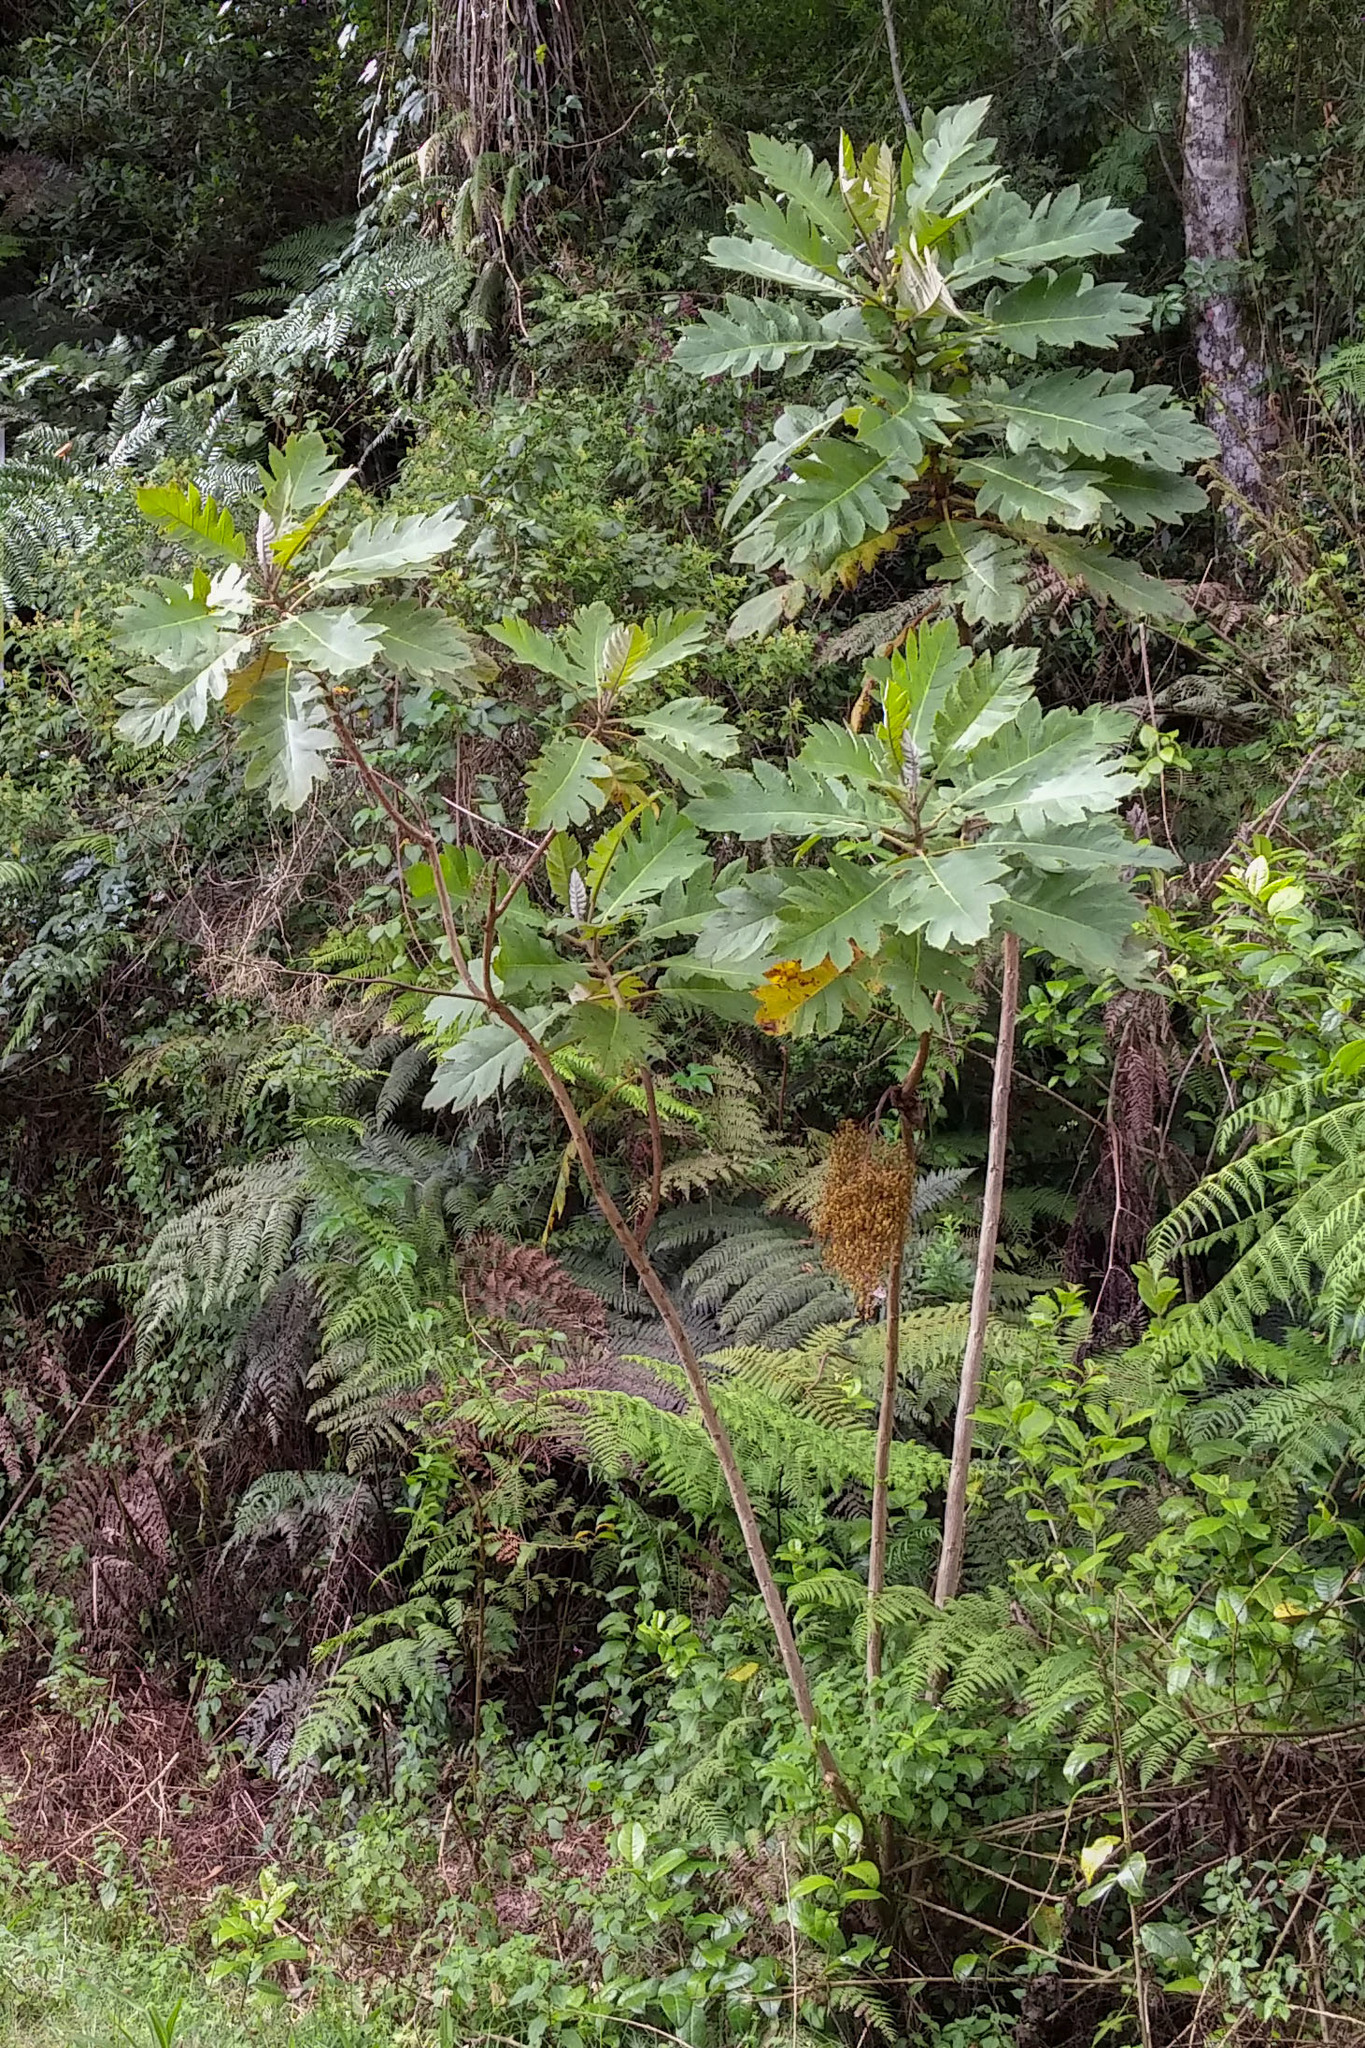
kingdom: Plantae
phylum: Tracheophyta
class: Magnoliopsida
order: Ranunculales
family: Papaveraceae
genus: Bocconia
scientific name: Bocconia frutescens
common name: Tree poppy
